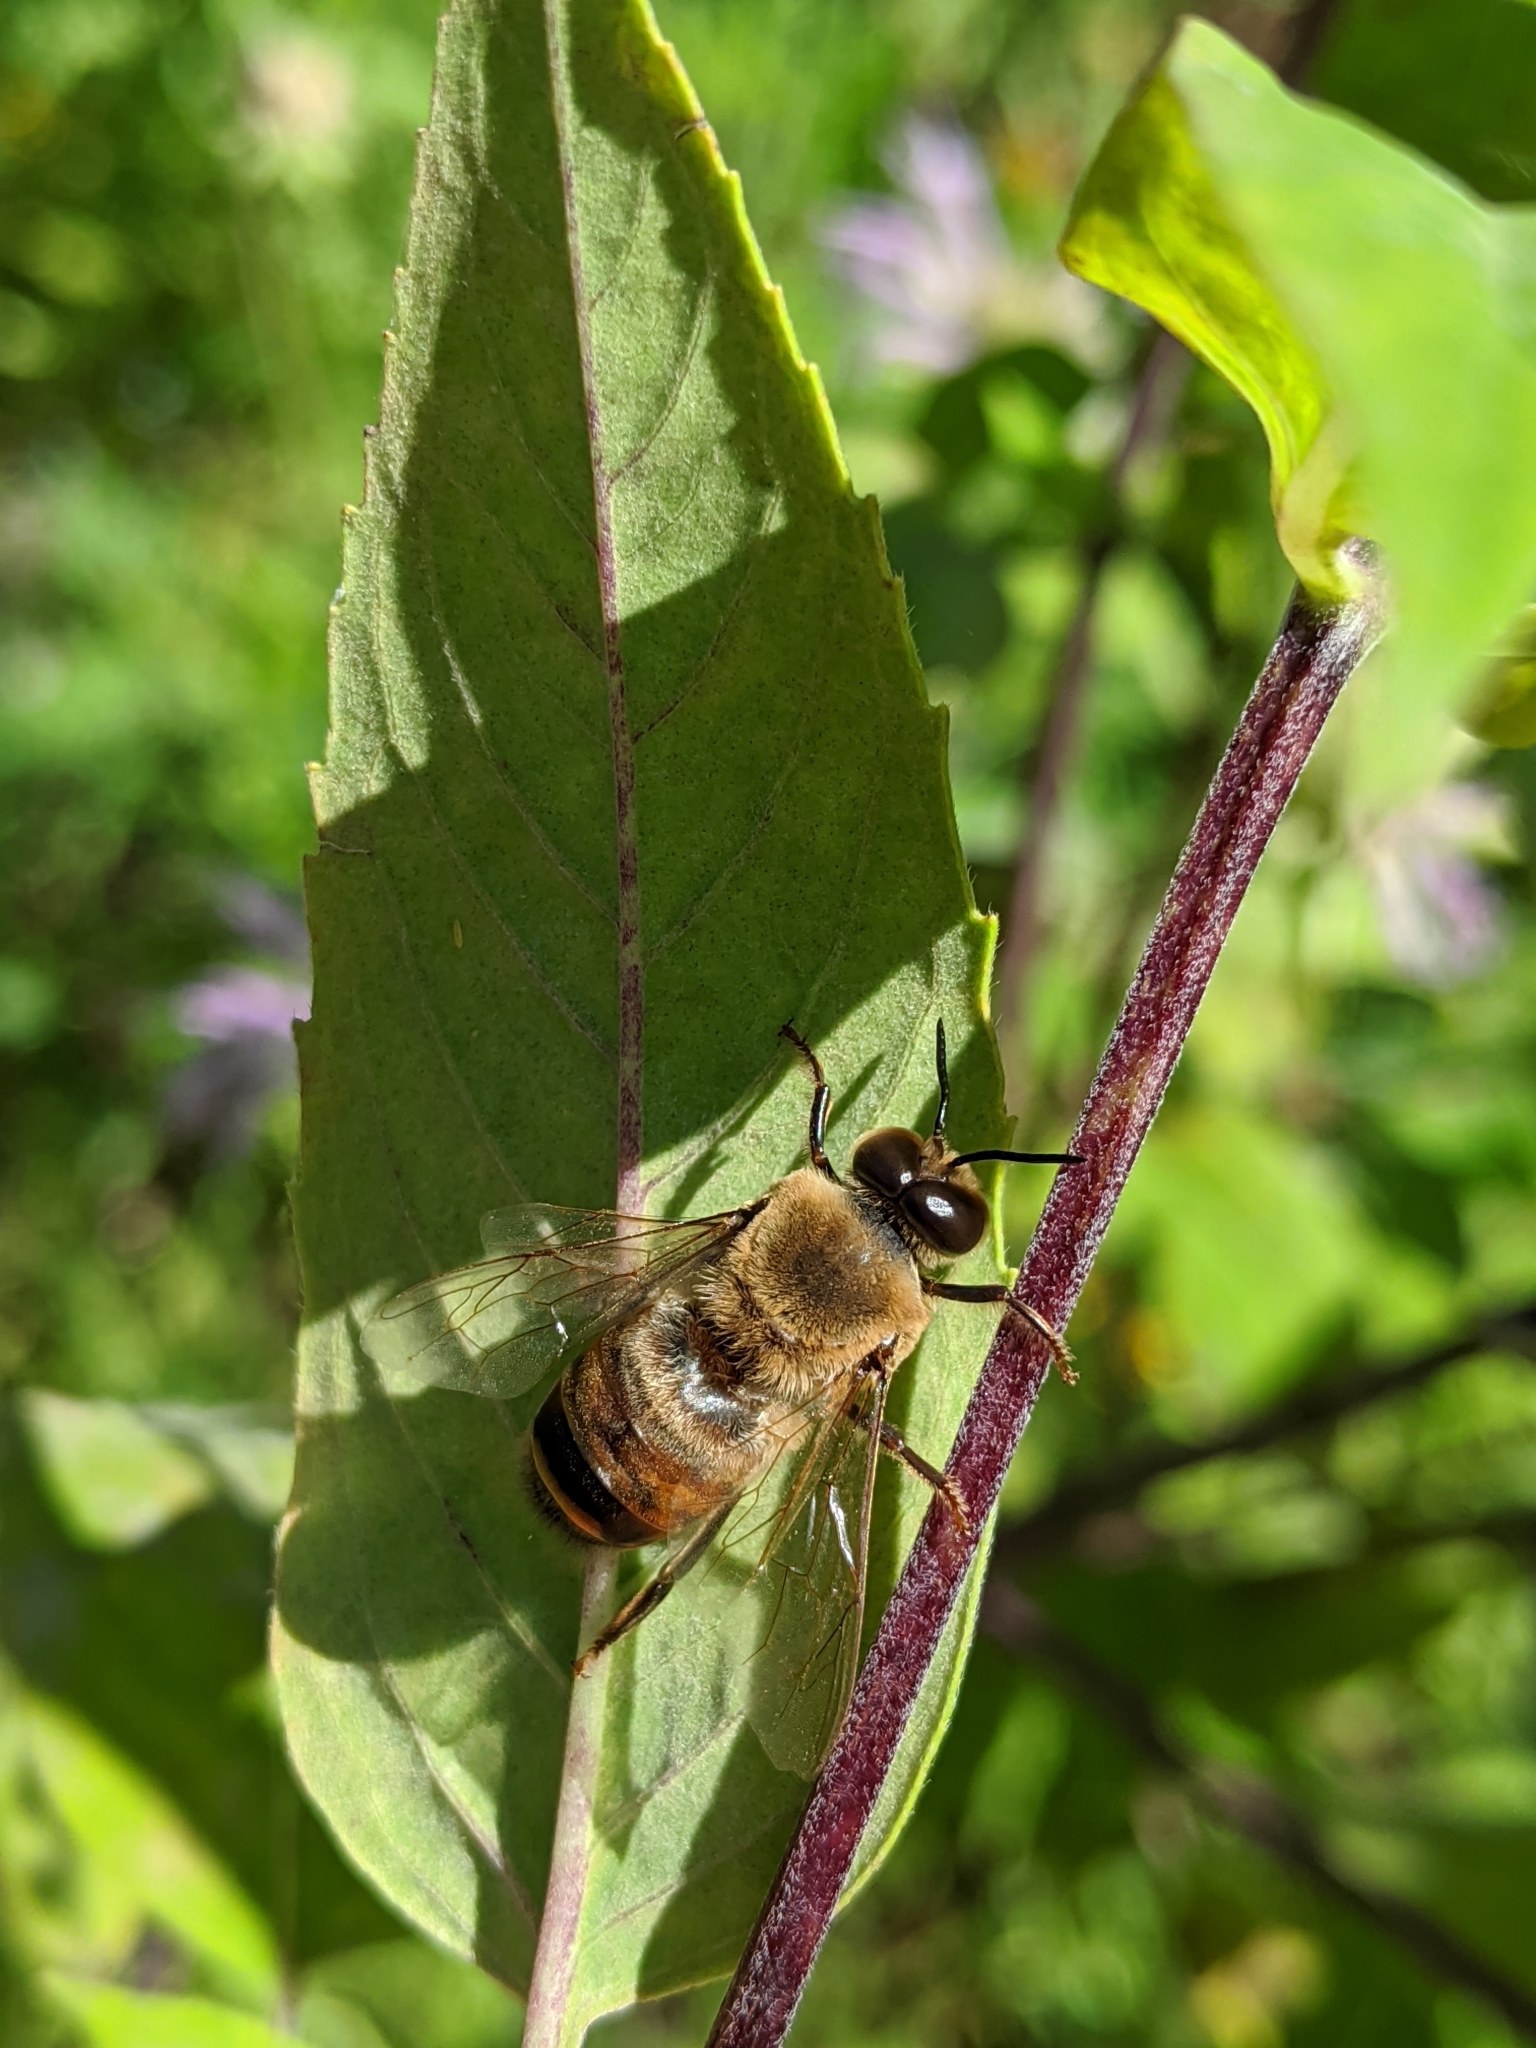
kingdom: Animalia
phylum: Arthropoda
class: Insecta
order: Hymenoptera
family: Apidae
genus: Apis
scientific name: Apis mellifera
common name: Honey bee
